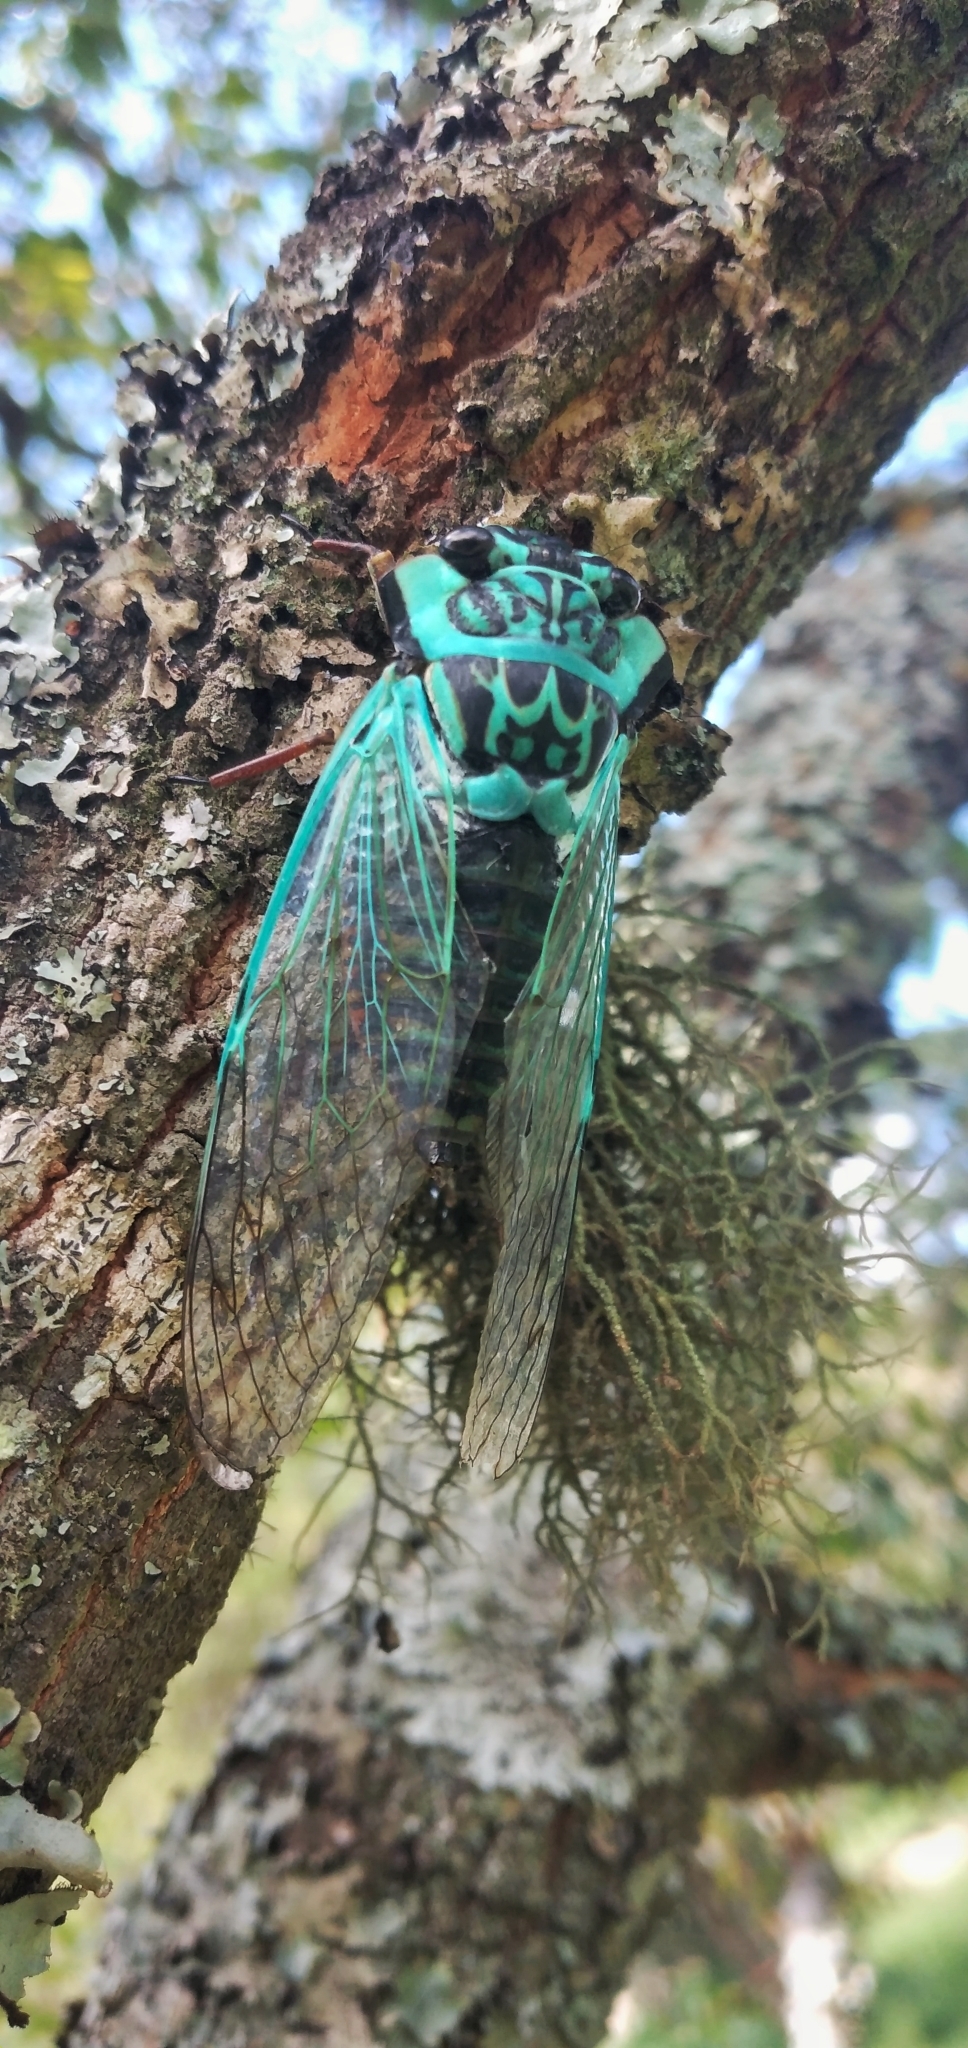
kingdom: Animalia
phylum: Arthropoda
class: Insecta
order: Hemiptera
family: Cicadidae
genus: Adusella
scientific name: Adusella insignifera
